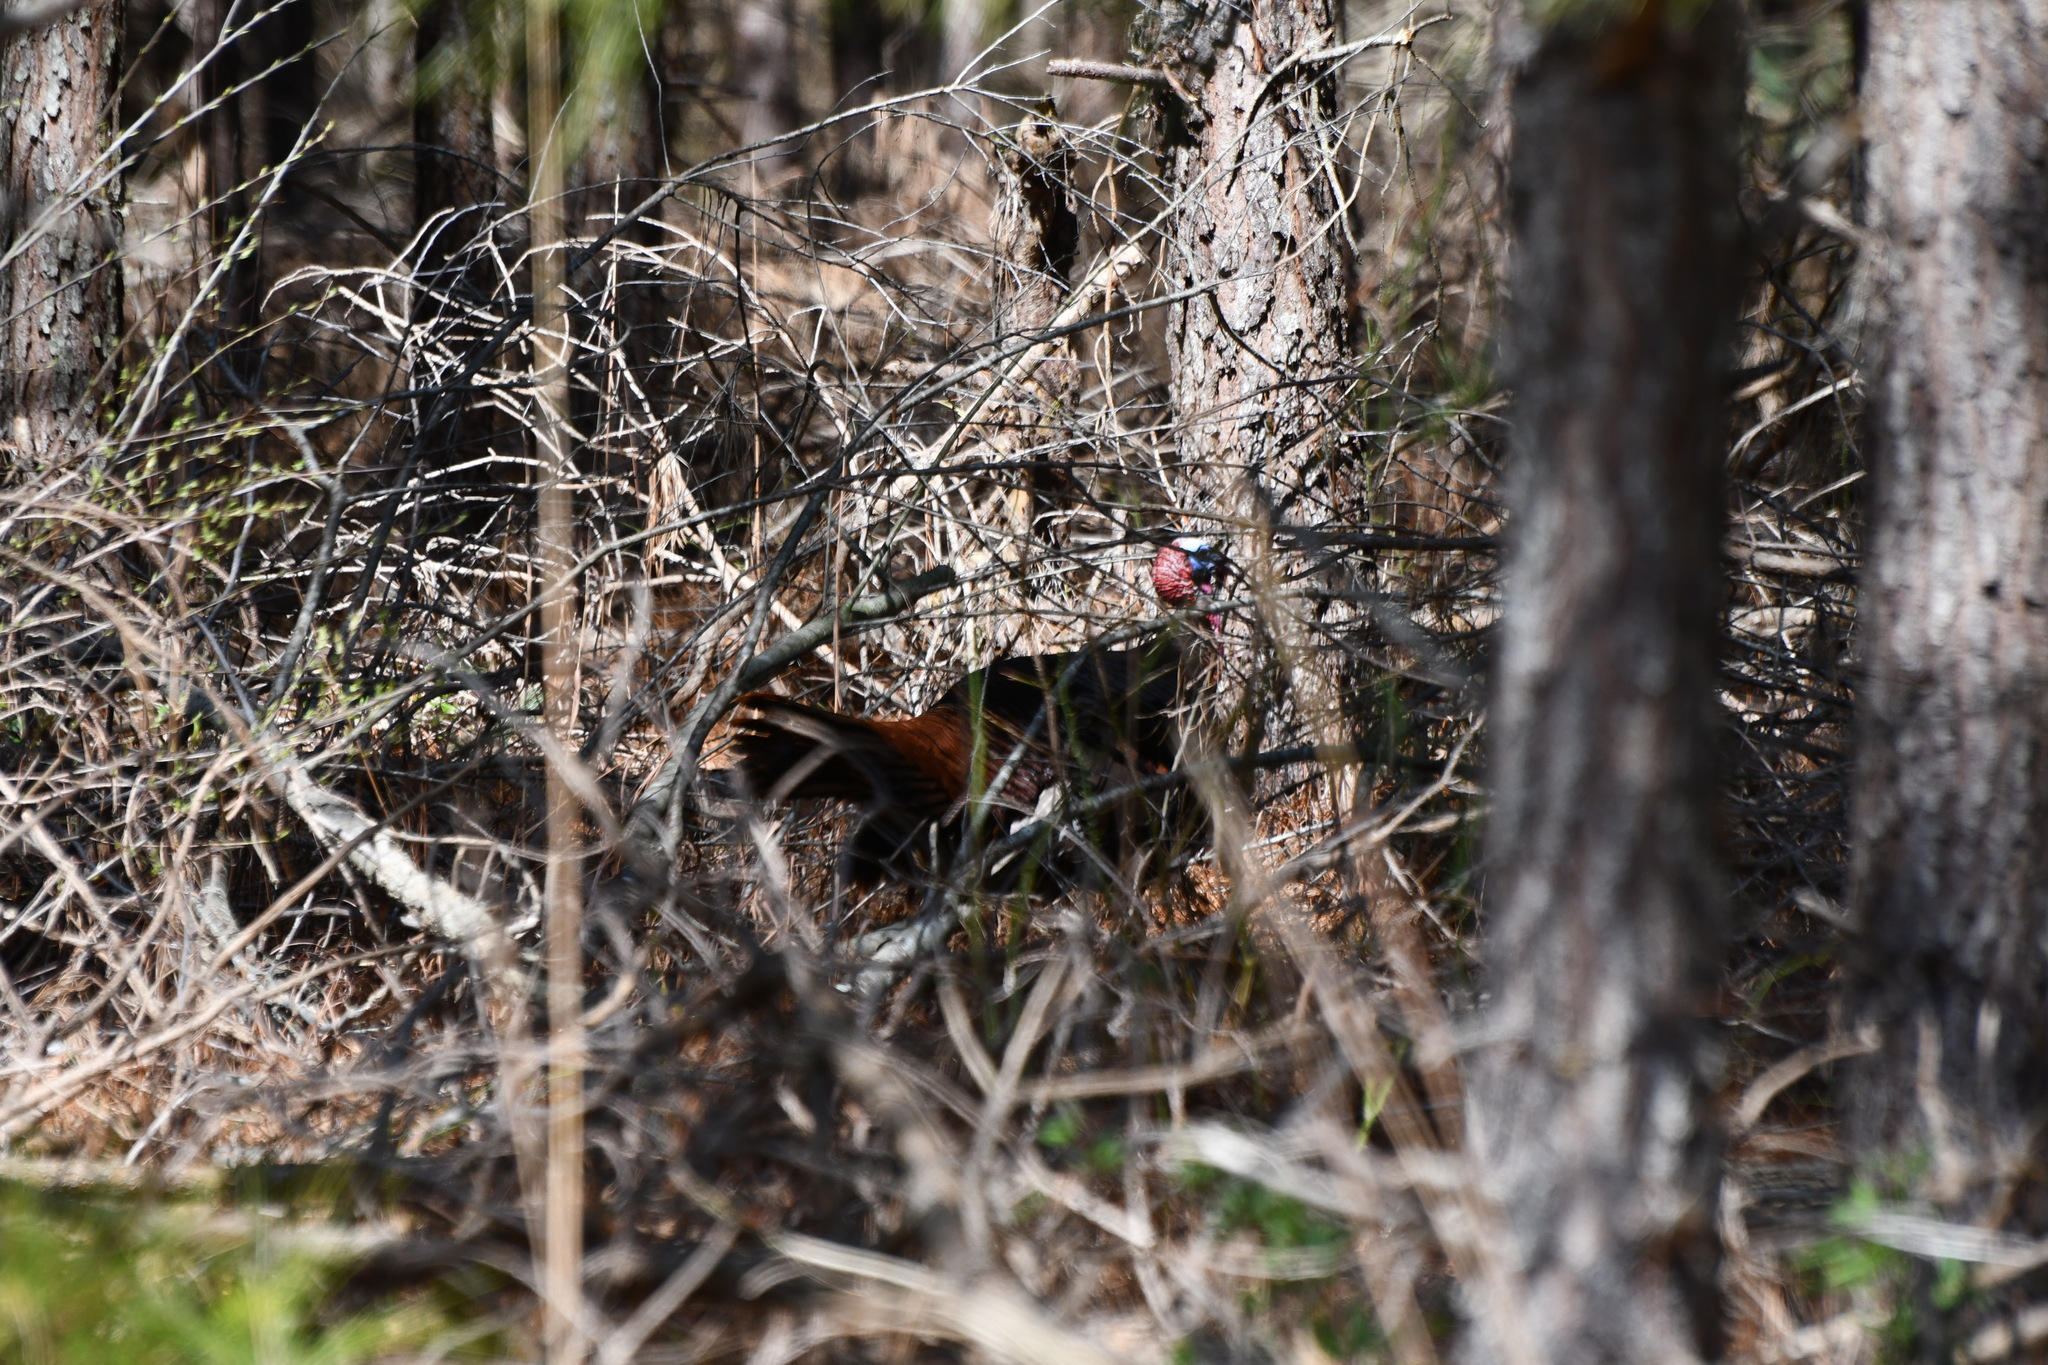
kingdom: Animalia
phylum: Chordata
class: Aves
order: Galliformes
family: Phasianidae
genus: Meleagris
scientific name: Meleagris gallopavo
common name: Wild turkey
